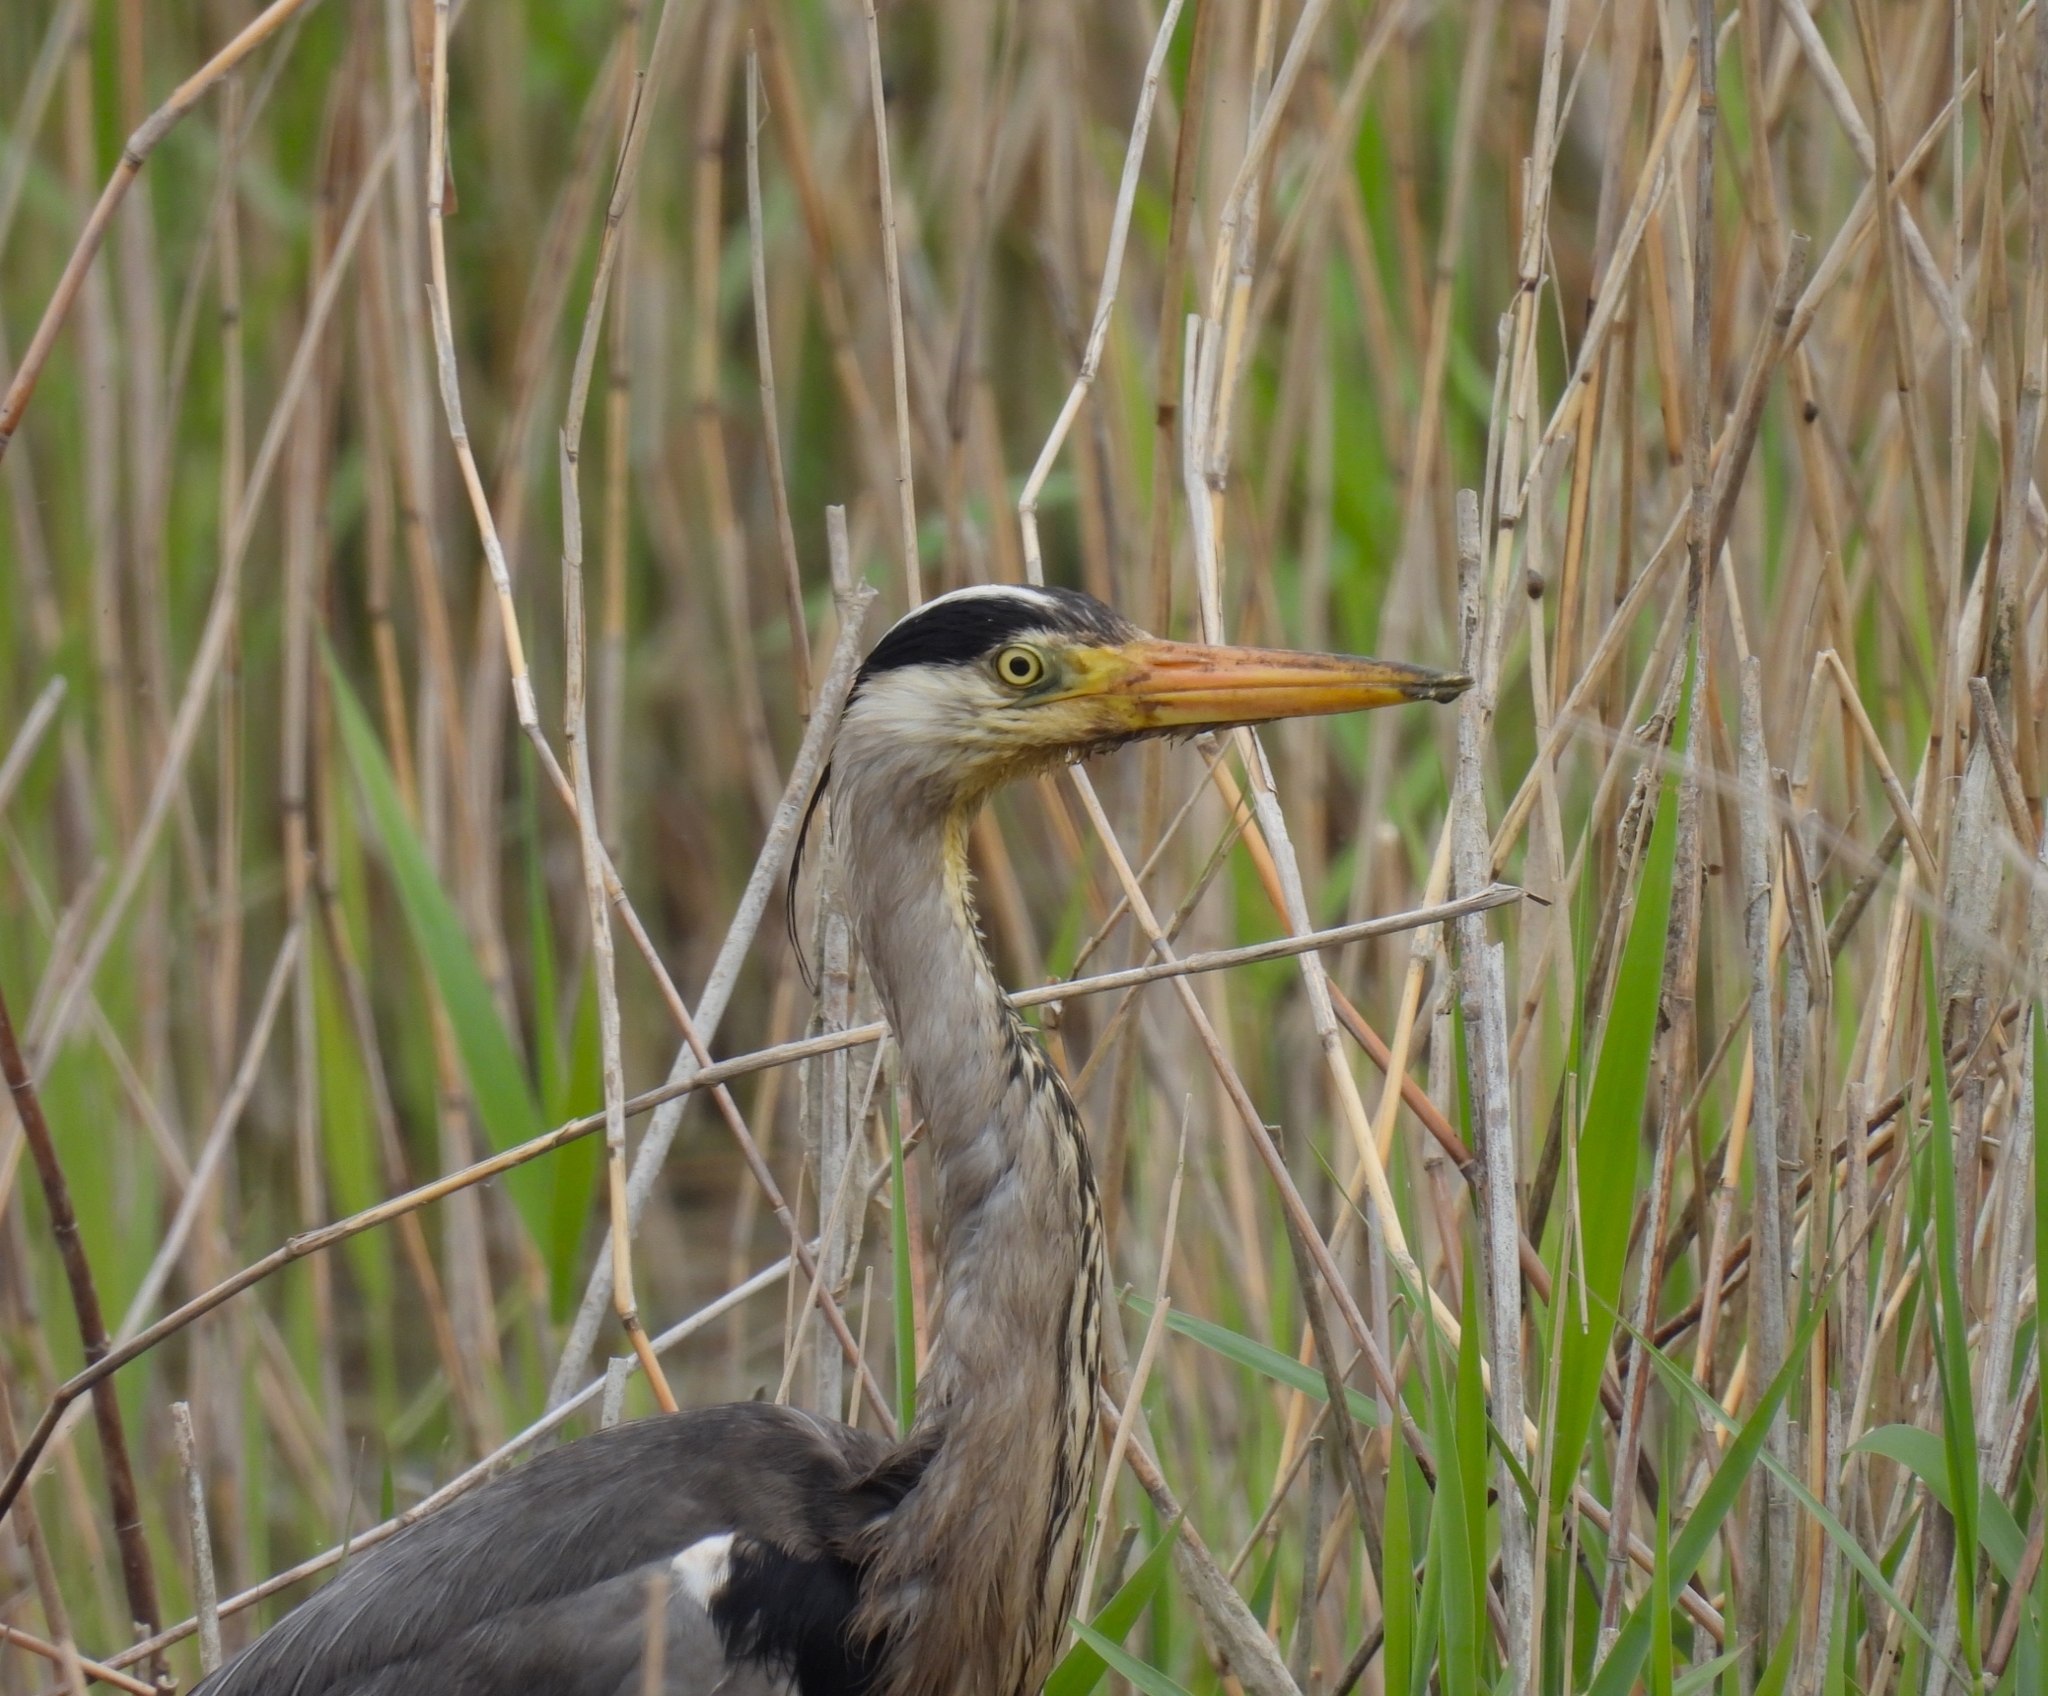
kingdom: Animalia
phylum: Chordata
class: Aves
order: Pelecaniformes
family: Ardeidae
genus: Ardea
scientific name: Ardea cinerea
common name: Grey heron
